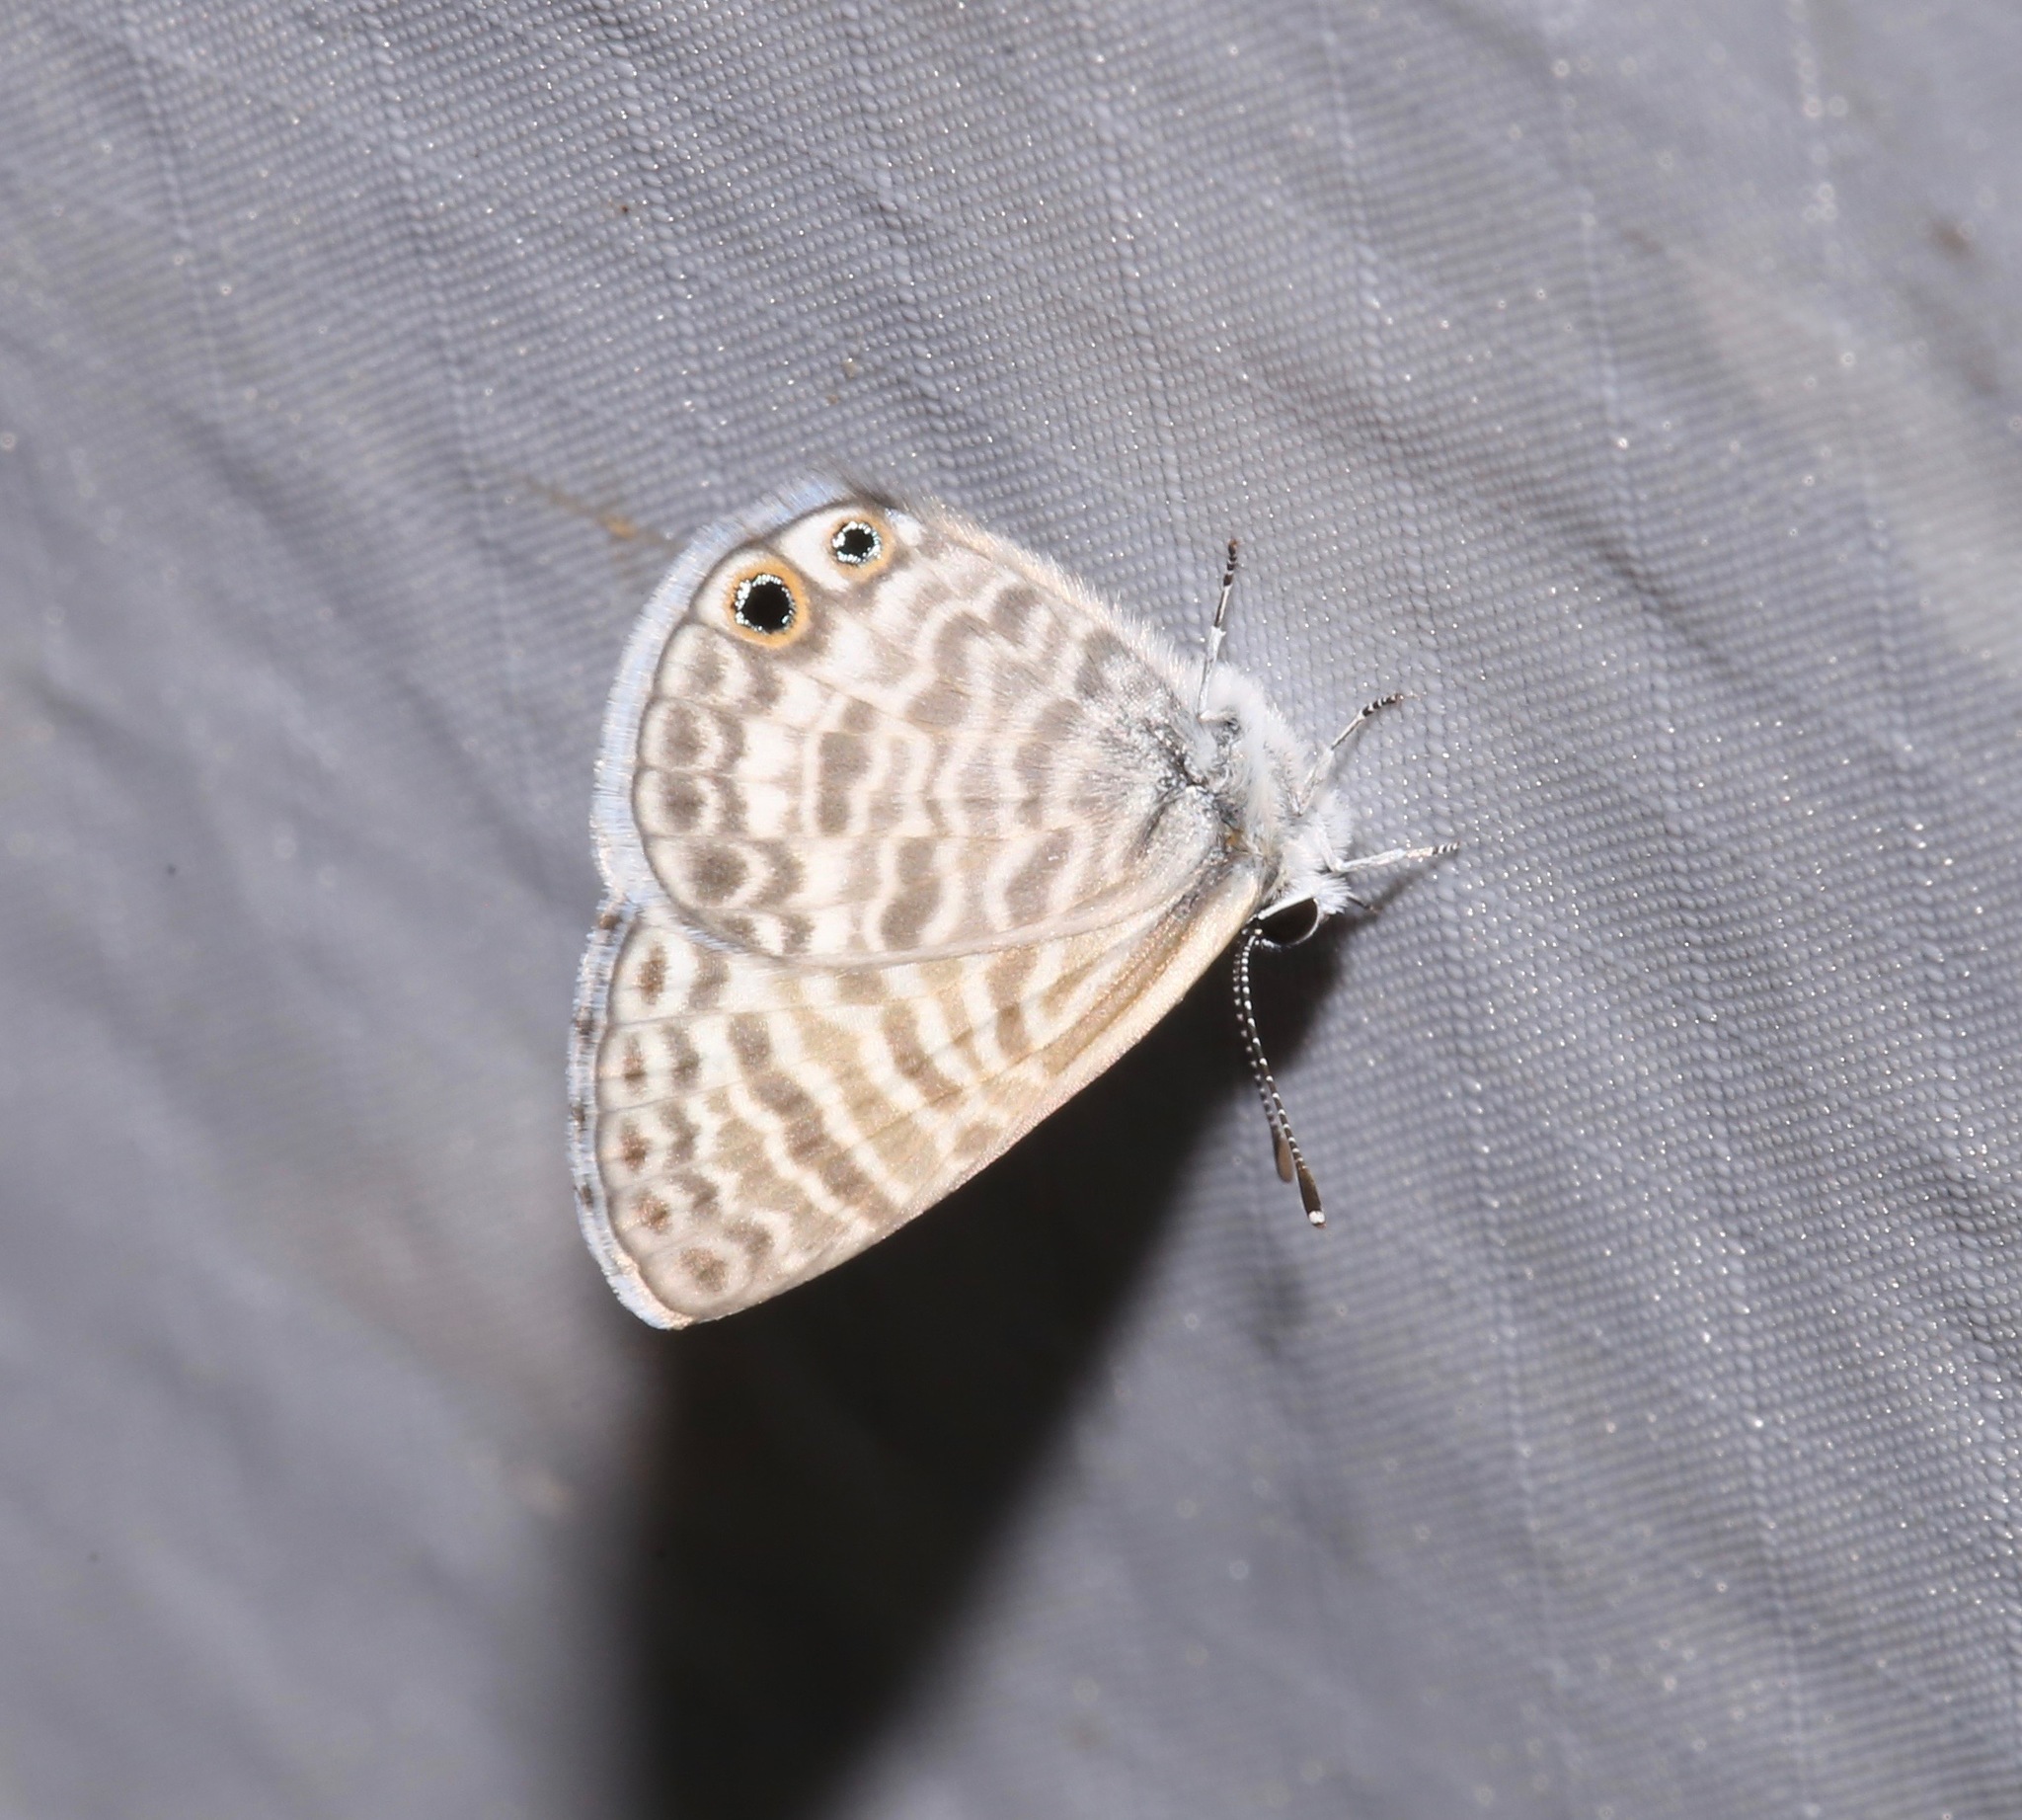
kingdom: Animalia
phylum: Arthropoda
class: Insecta
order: Lepidoptera
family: Lycaenidae
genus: Leptotes
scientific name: Leptotes marina
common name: Marine blue
